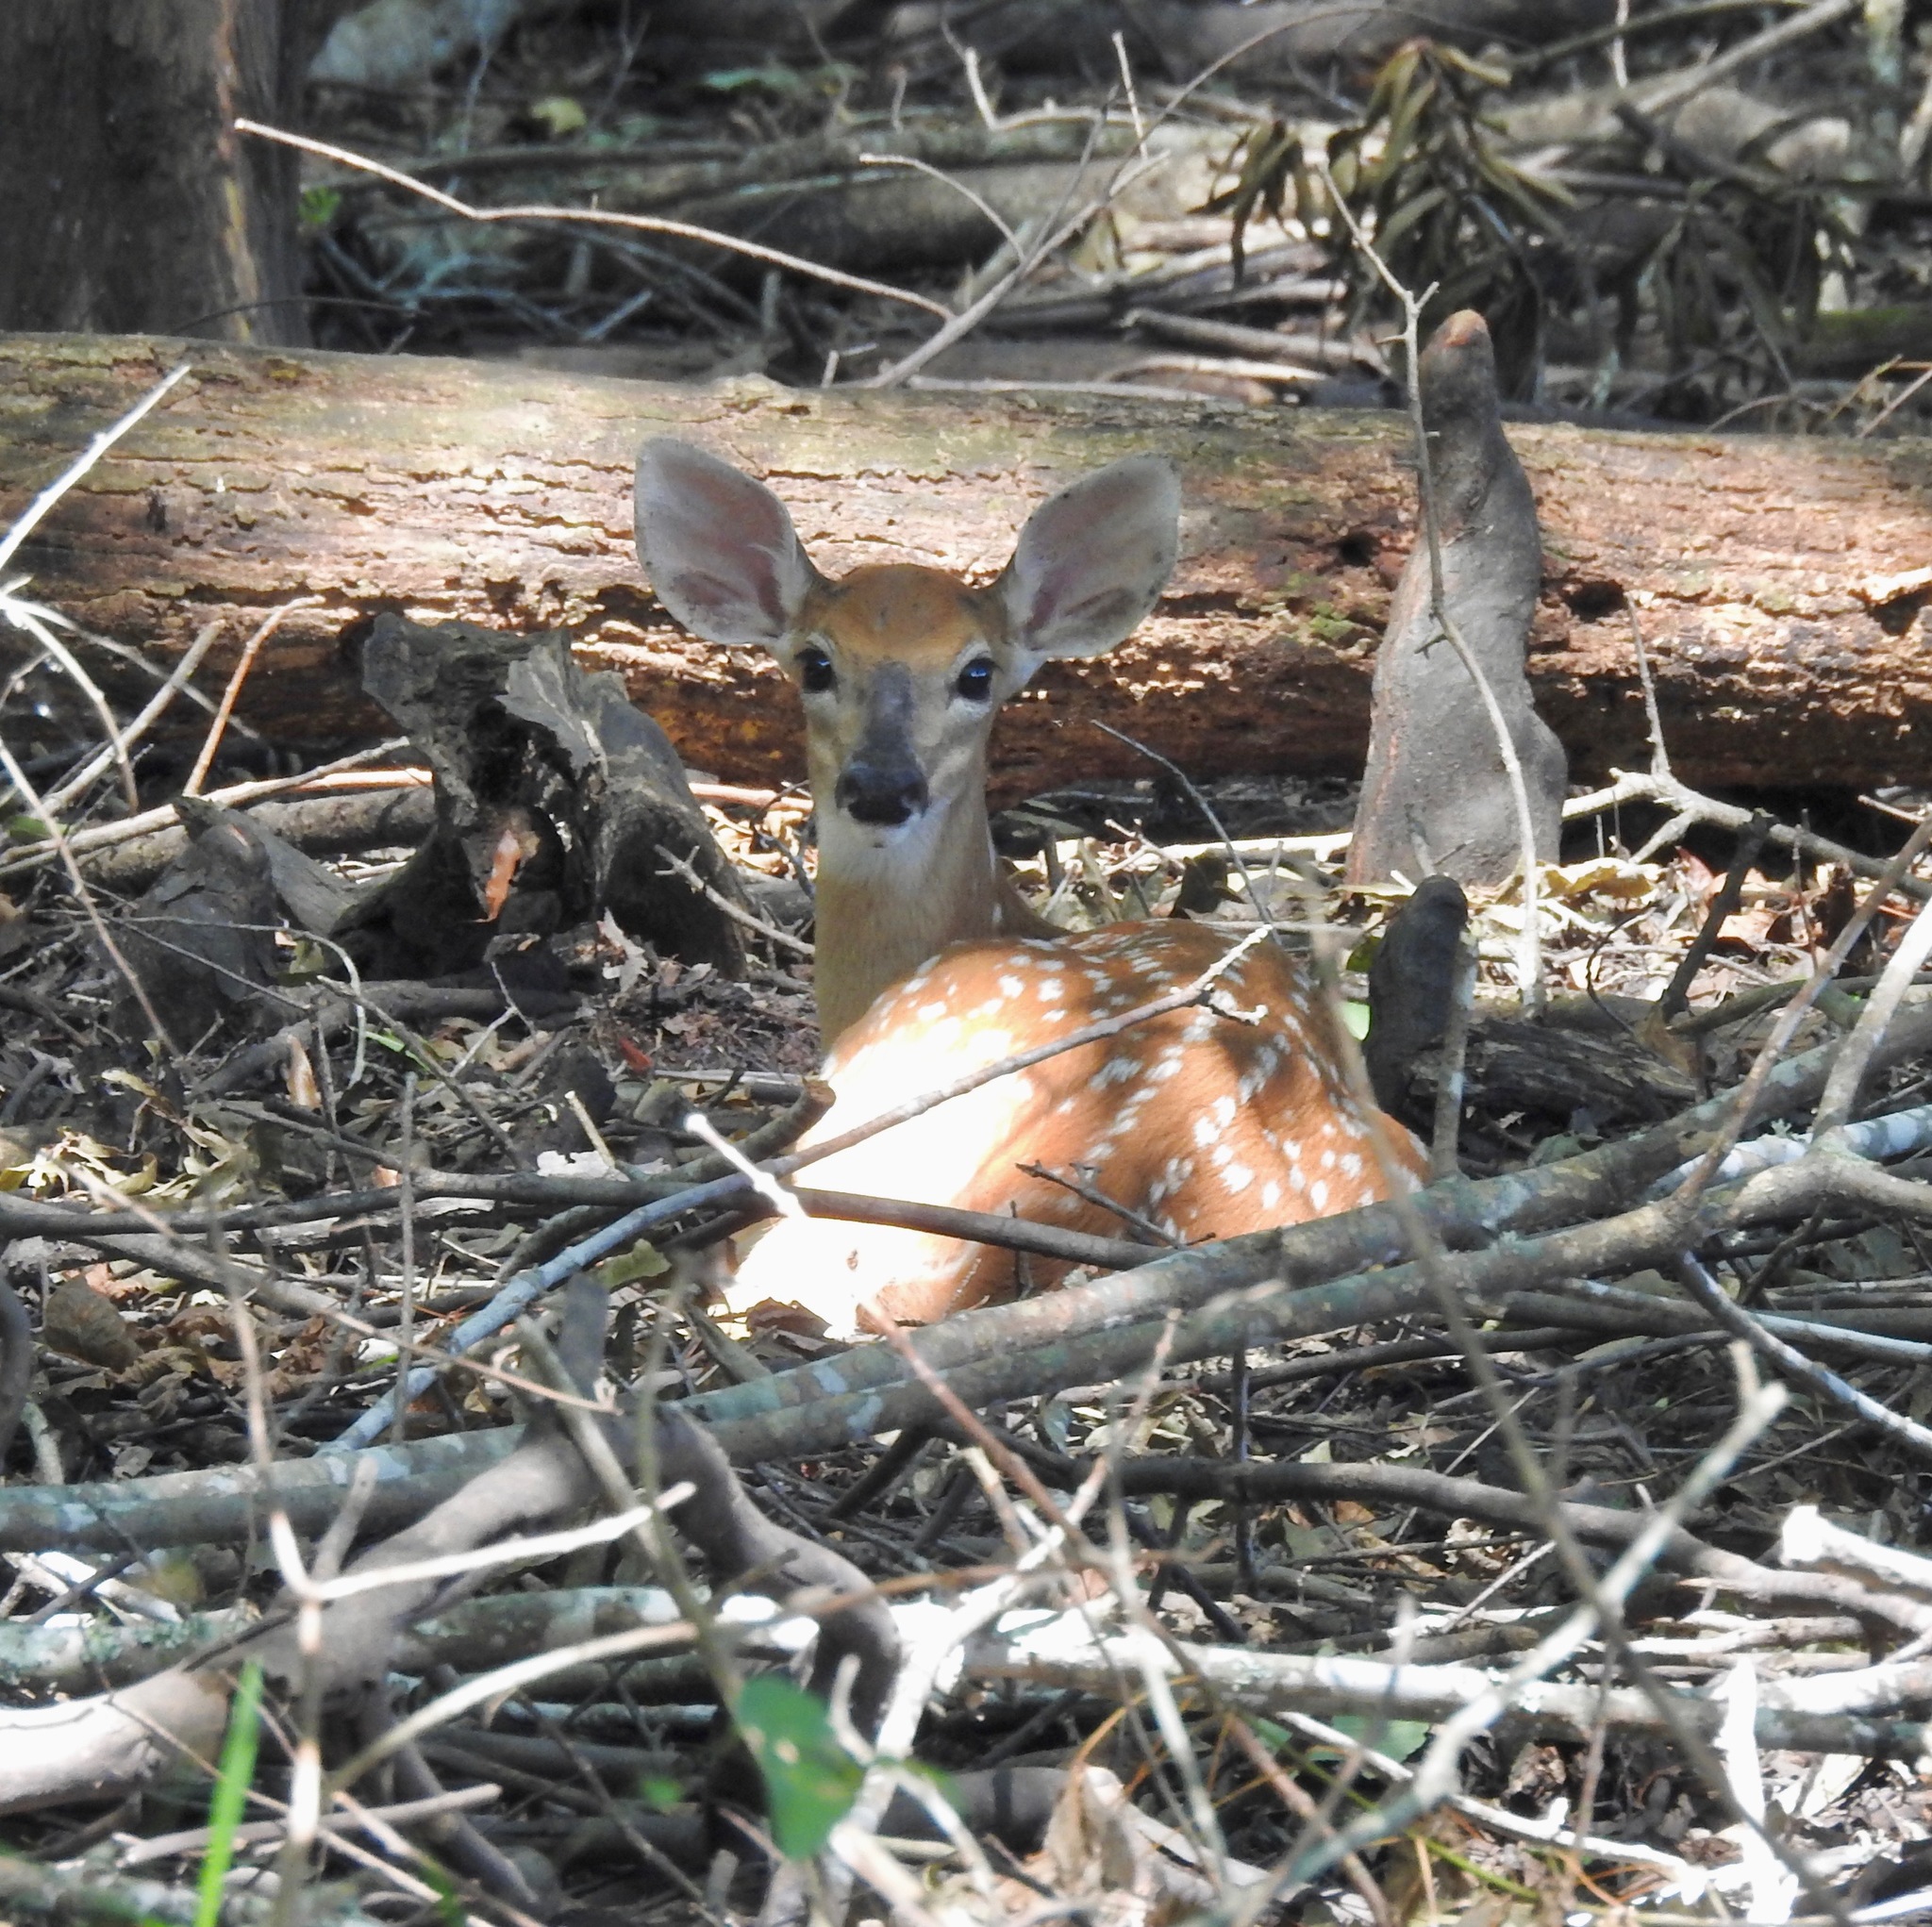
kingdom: Animalia
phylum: Chordata
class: Mammalia
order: Artiodactyla
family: Cervidae
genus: Odocoileus
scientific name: Odocoileus virginianus
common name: White-tailed deer
